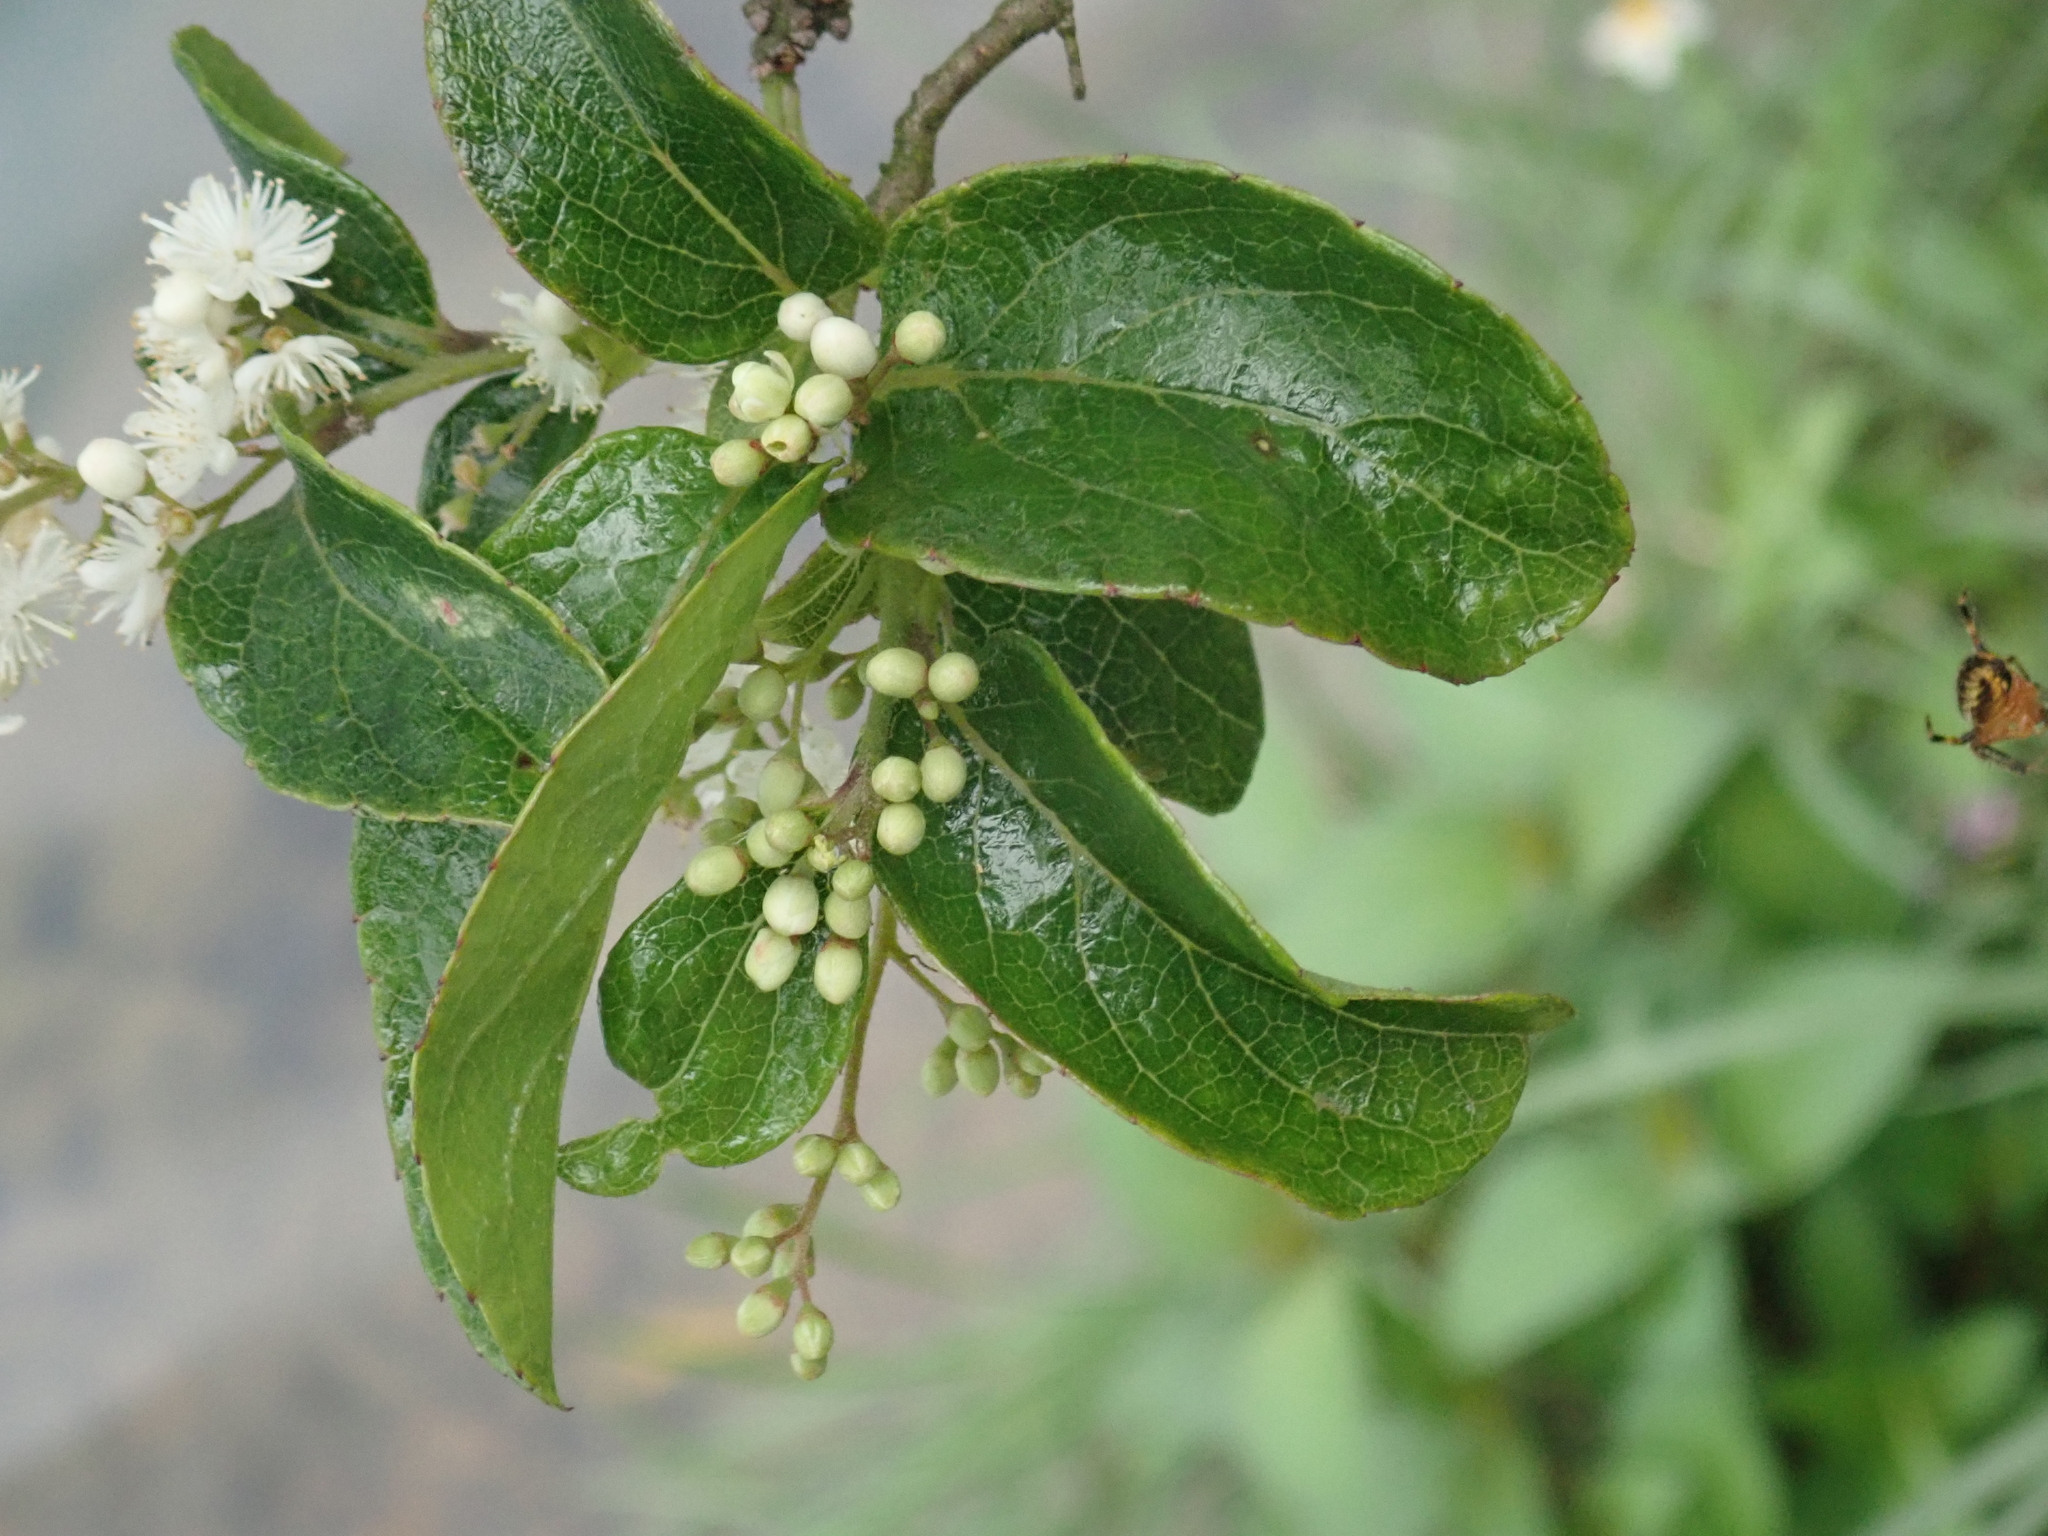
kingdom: Plantae
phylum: Tracheophyta
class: Magnoliopsida
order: Ericales
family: Symplocaceae
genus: Symplocos
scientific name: Symplocos paniculata
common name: Sapphire-berry
